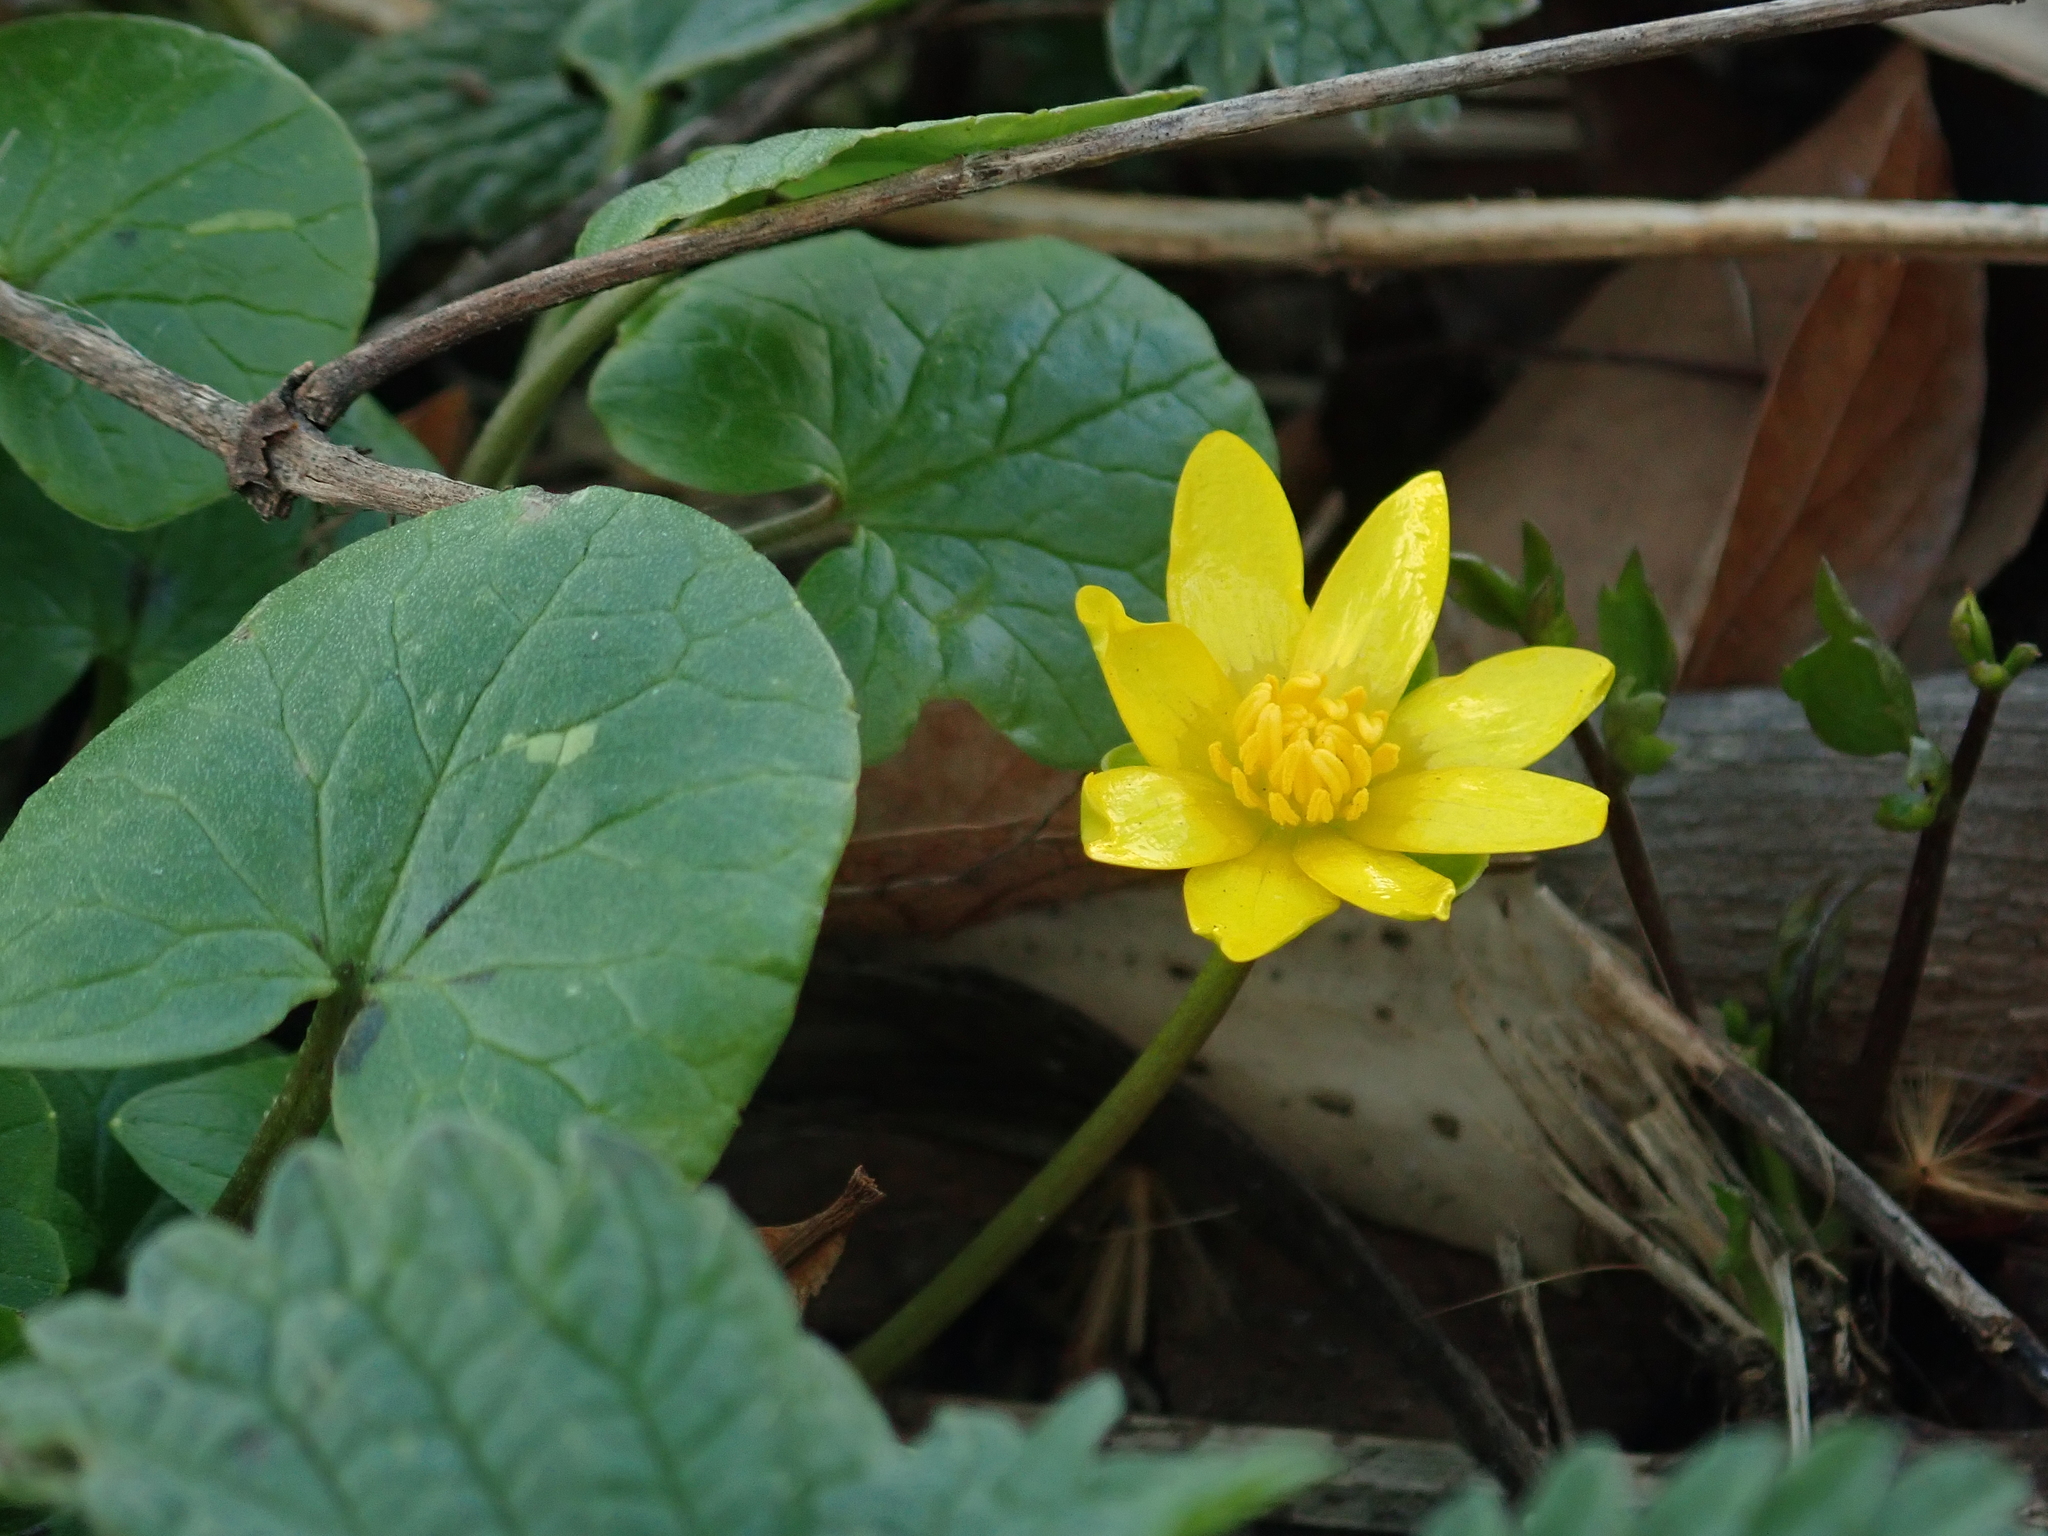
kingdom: Plantae
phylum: Tracheophyta
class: Magnoliopsida
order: Ranunculales
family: Ranunculaceae
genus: Ficaria
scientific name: Ficaria verna
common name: Lesser celandine
